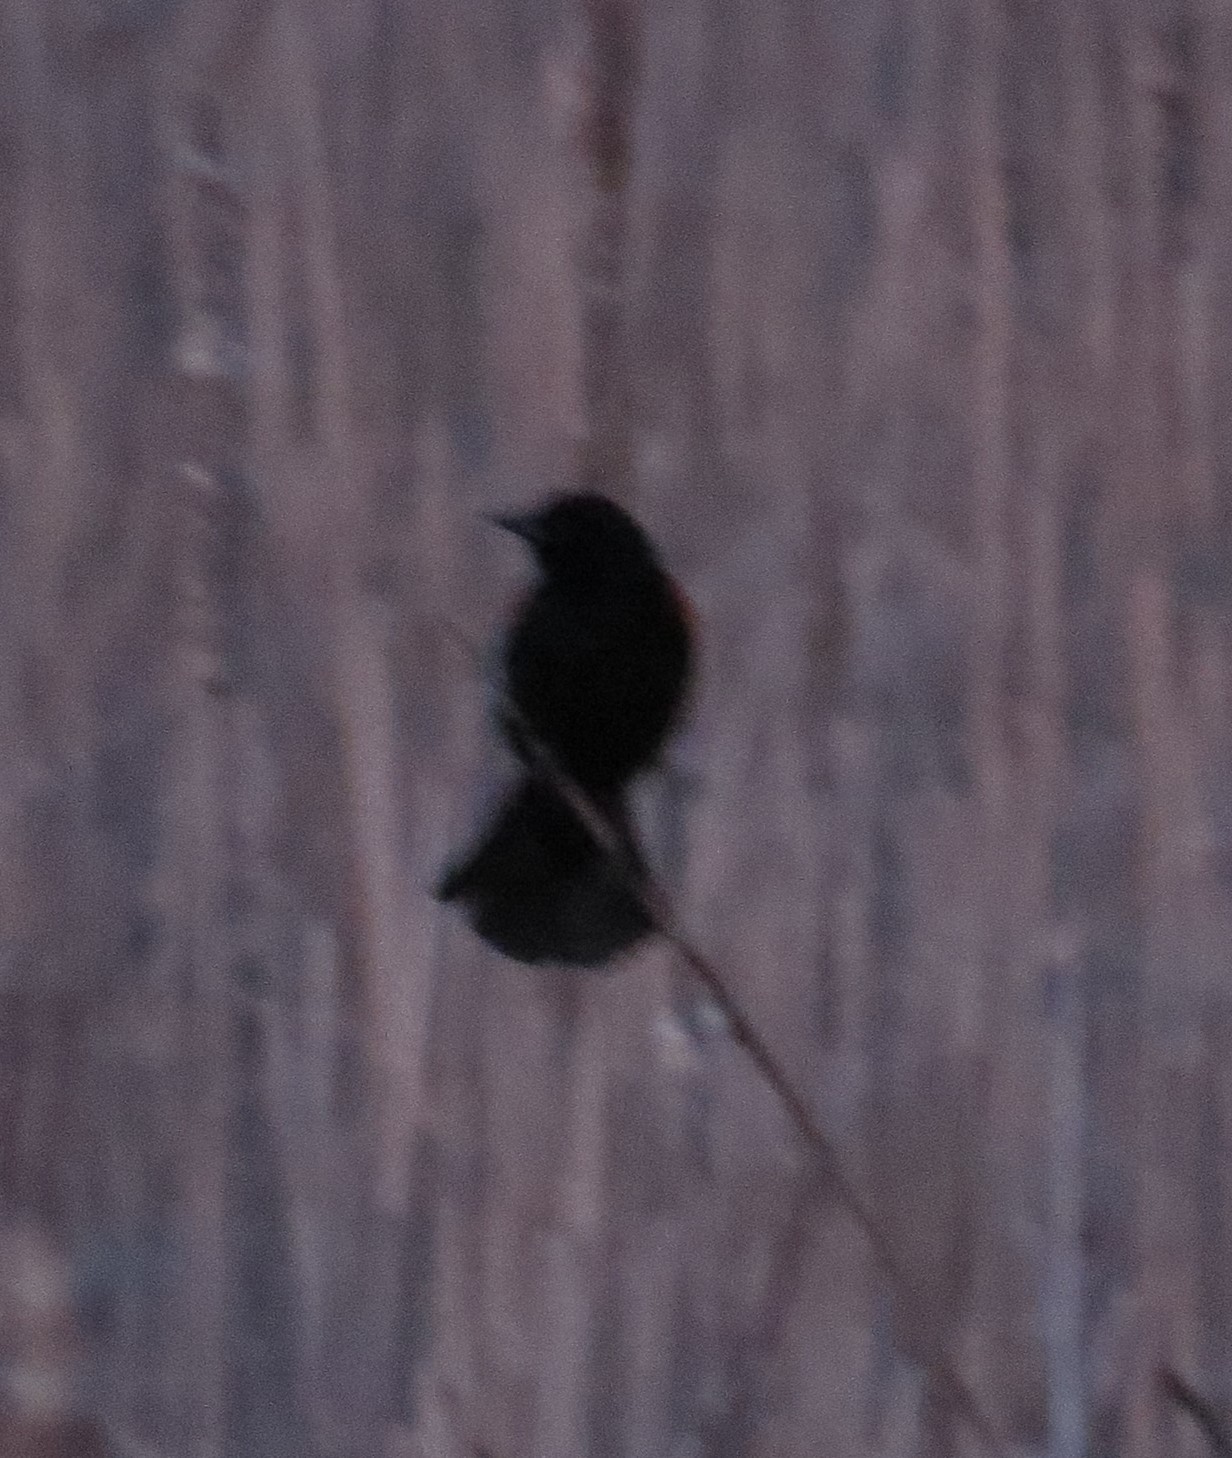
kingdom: Animalia
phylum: Chordata
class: Aves
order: Passeriformes
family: Icteridae
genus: Agelaius
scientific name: Agelaius phoeniceus
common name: Red-winged blackbird
